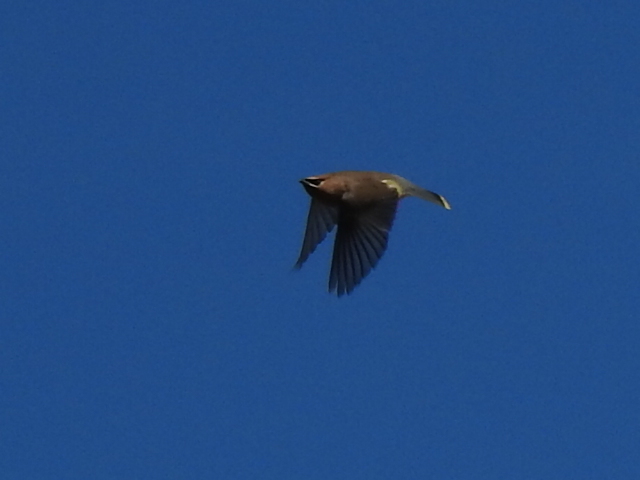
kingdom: Animalia
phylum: Chordata
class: Aves
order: Passeriformes
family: Bombycillidae
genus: Bombycilla
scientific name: Bombycilla cedrorum
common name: Cedar waxwing
